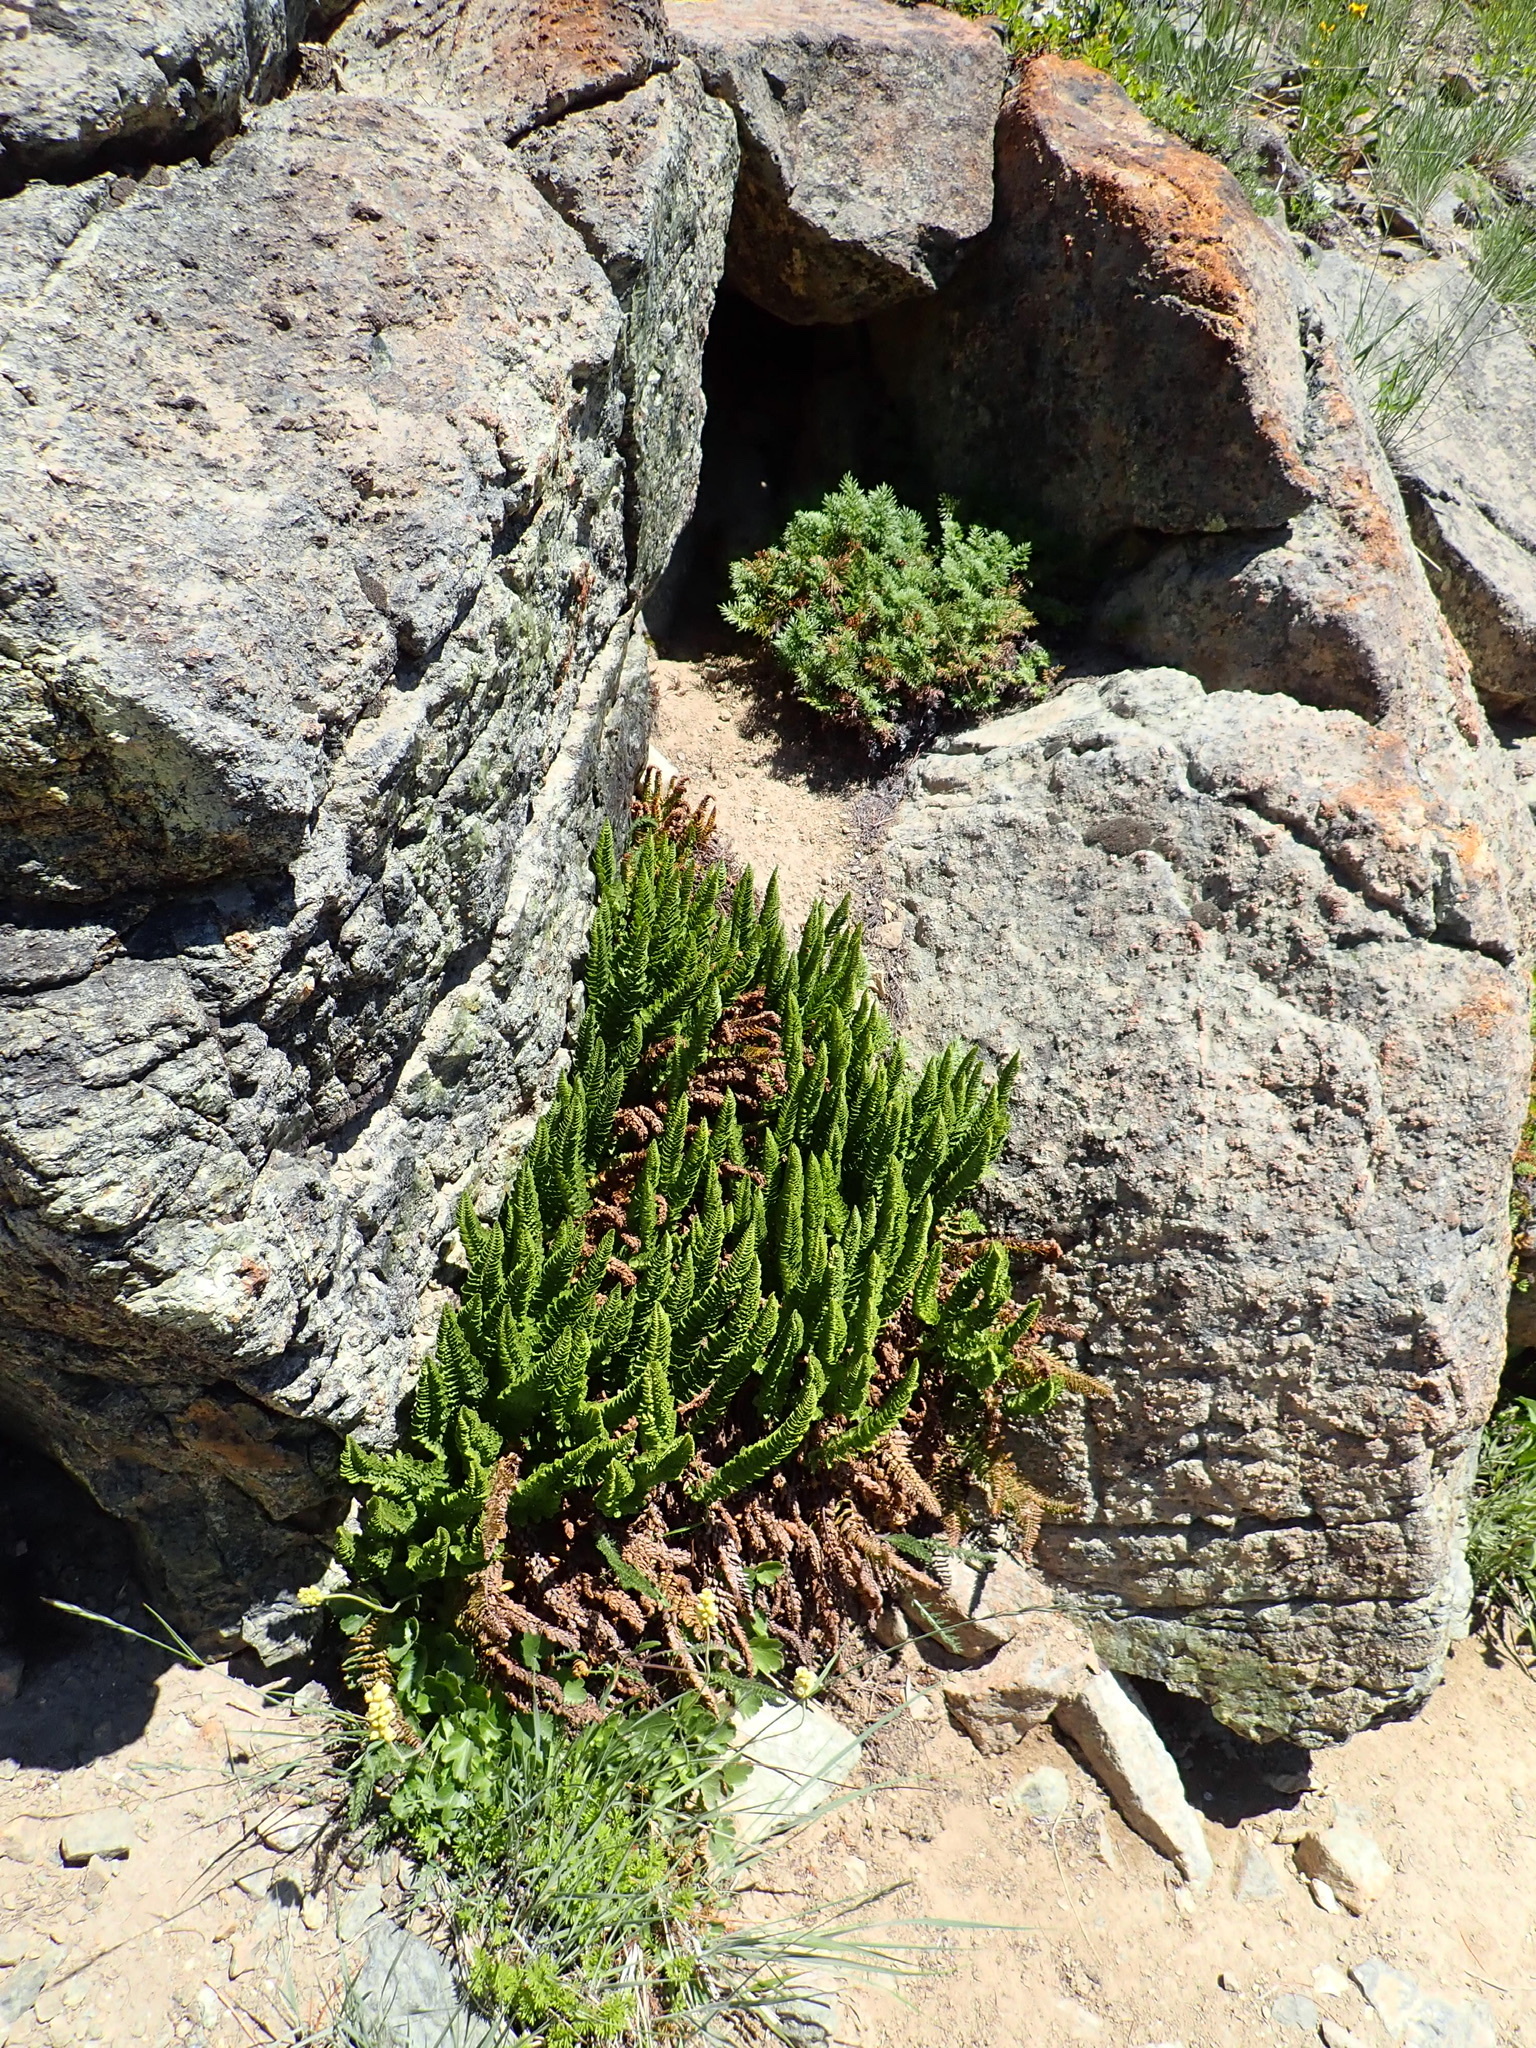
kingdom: Plantae
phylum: Tracheophyta
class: Polypodiopsida
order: Polypodiales
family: Pteridaceae
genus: Aspidotis
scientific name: Aspidotis densa
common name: Indian's dream
